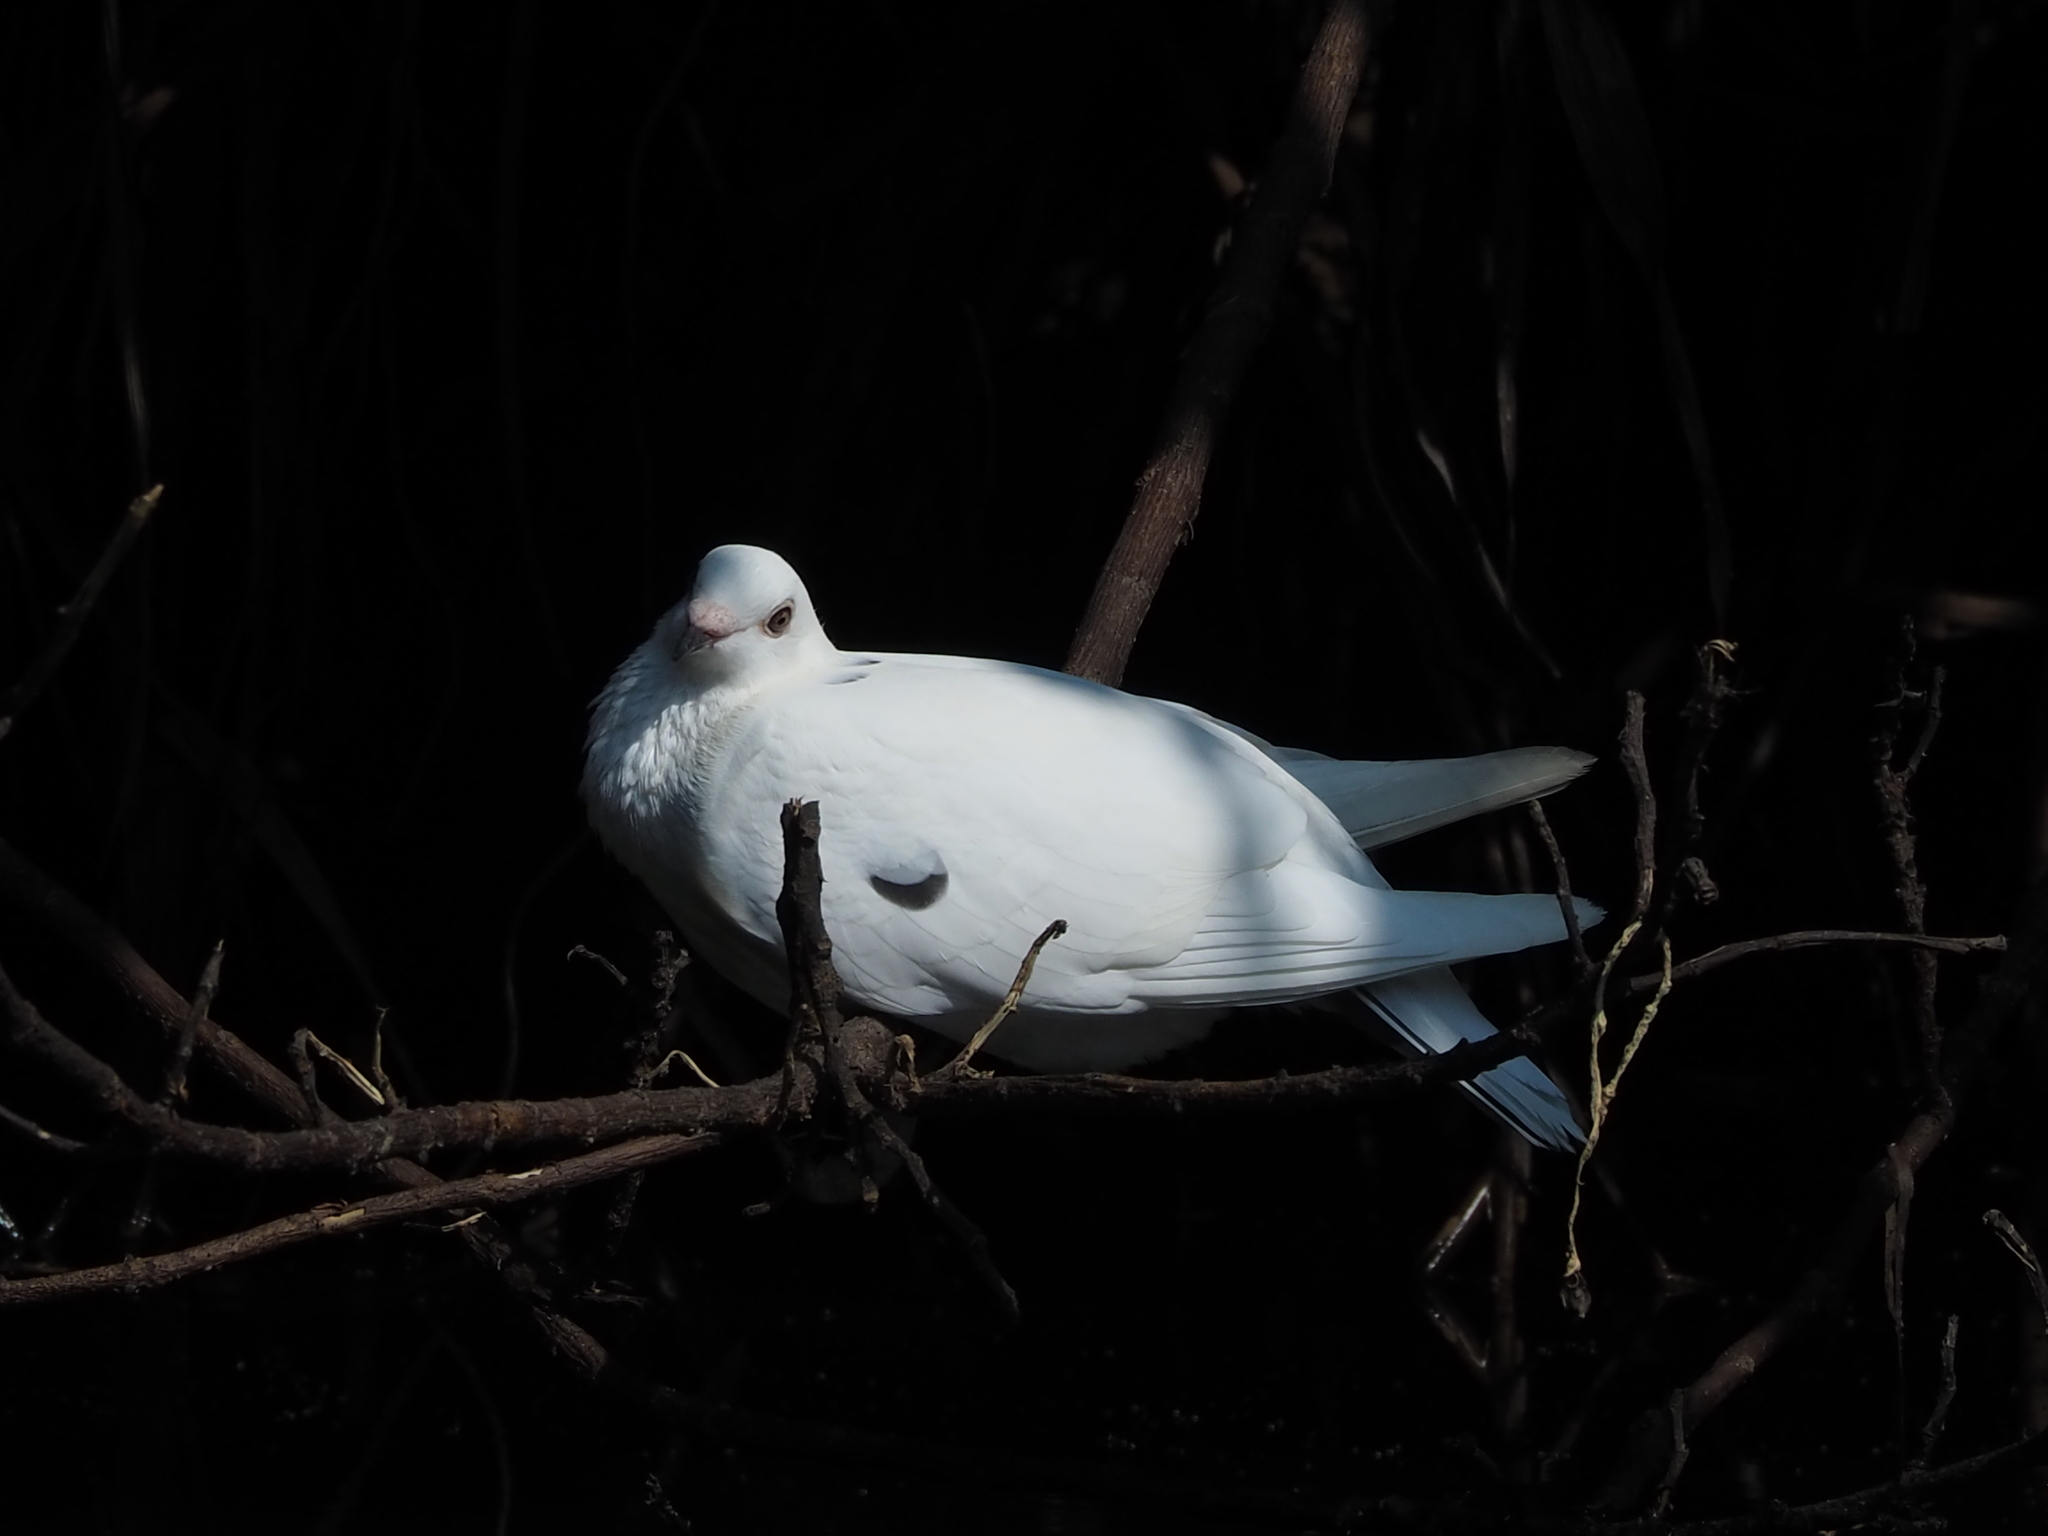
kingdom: Animalia
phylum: Chordata
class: Aves
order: Columbiformes
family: Columbidae
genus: Columba
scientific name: Columba livia
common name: Rock pigeon
